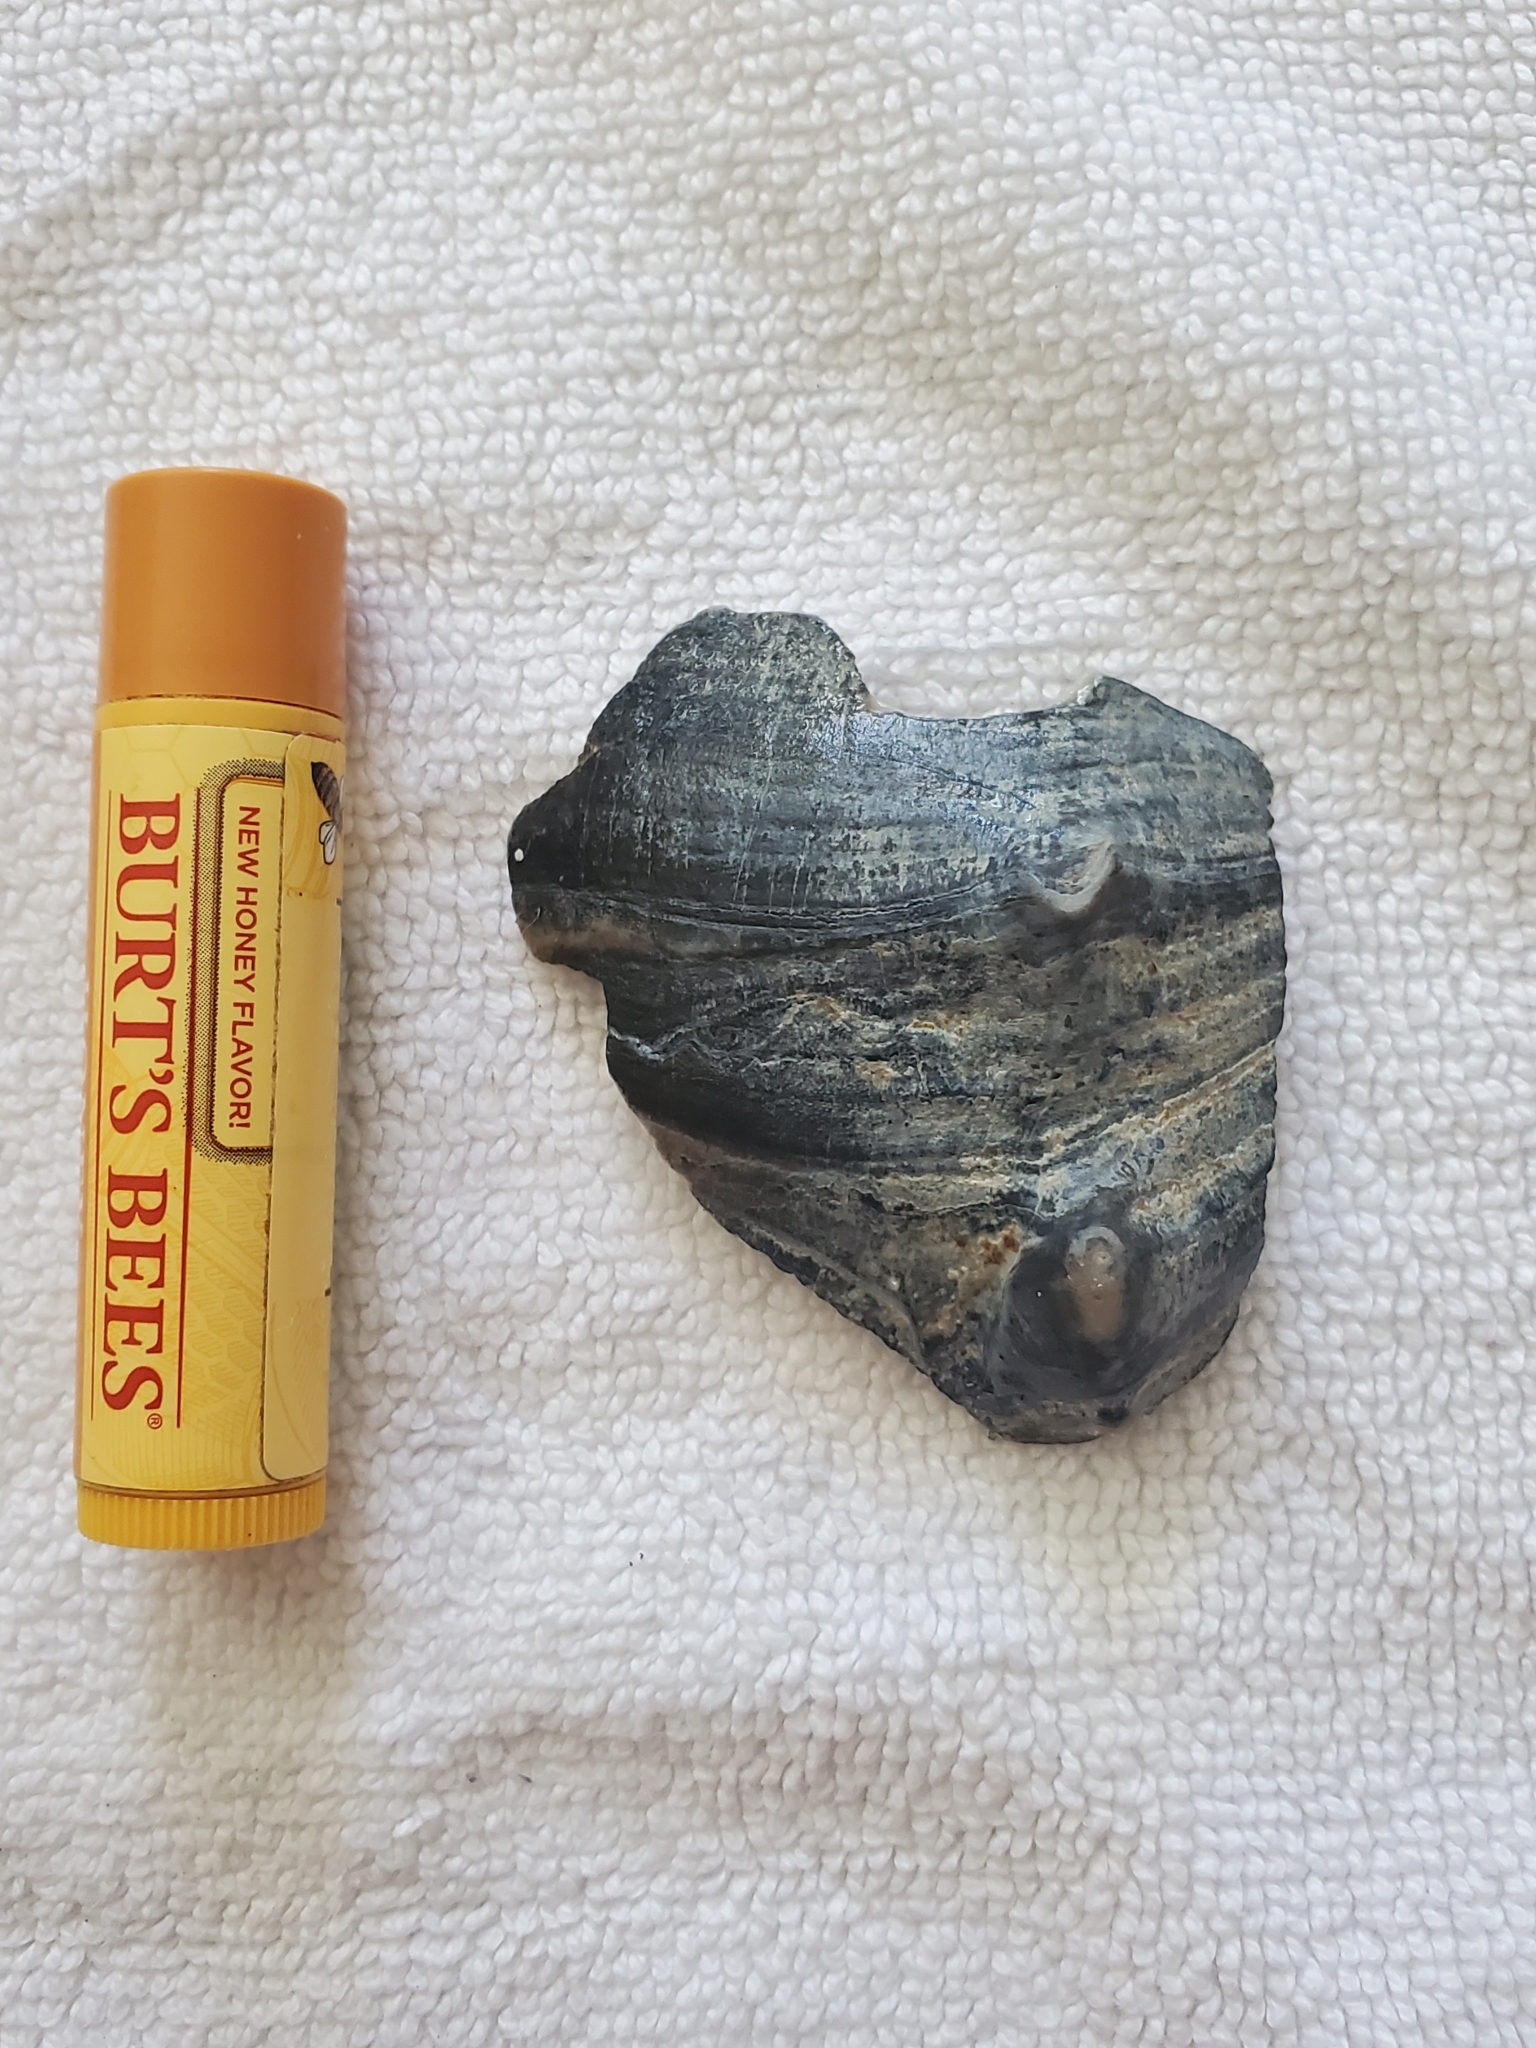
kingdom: Animalia
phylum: Mollusca
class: Gastropoda
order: Neogastropoda
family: Busyconidae
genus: Busycon
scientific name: Busycon carica
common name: Knobbed whelk
